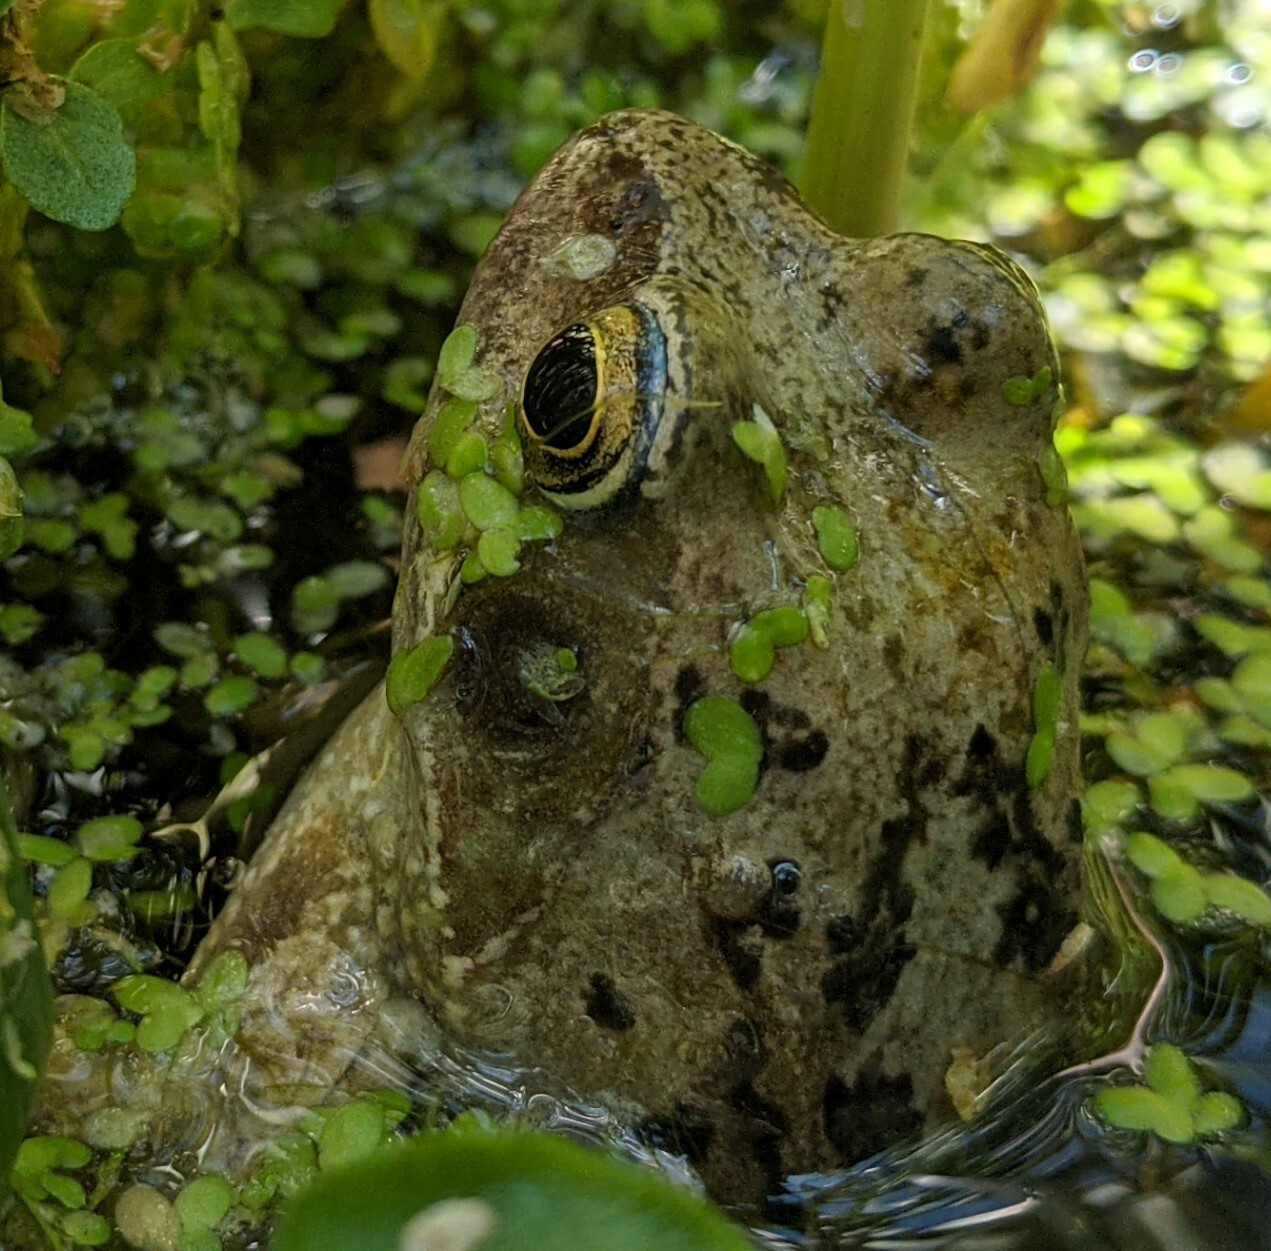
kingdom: Animalia
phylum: Chordata
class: Amphibia
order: Anura
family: Ranidae
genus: Rana
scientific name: Rana temporaria
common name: Common frog
